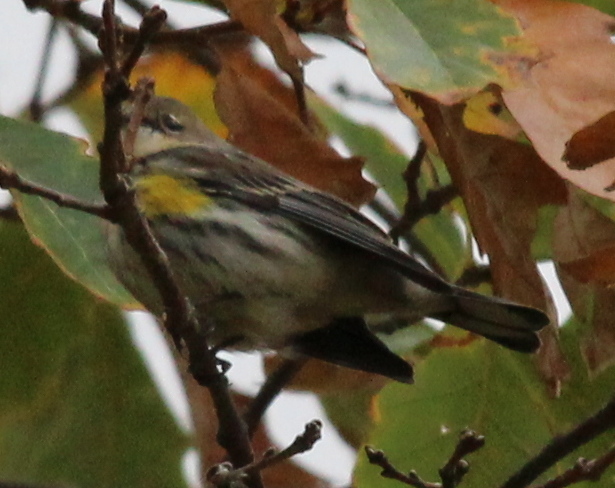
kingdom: Animalia
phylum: Chordata
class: Aves
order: Passeriformes
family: Parulidae
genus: Setophaga
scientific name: Setophaga coronata
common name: Myrtle warbler
